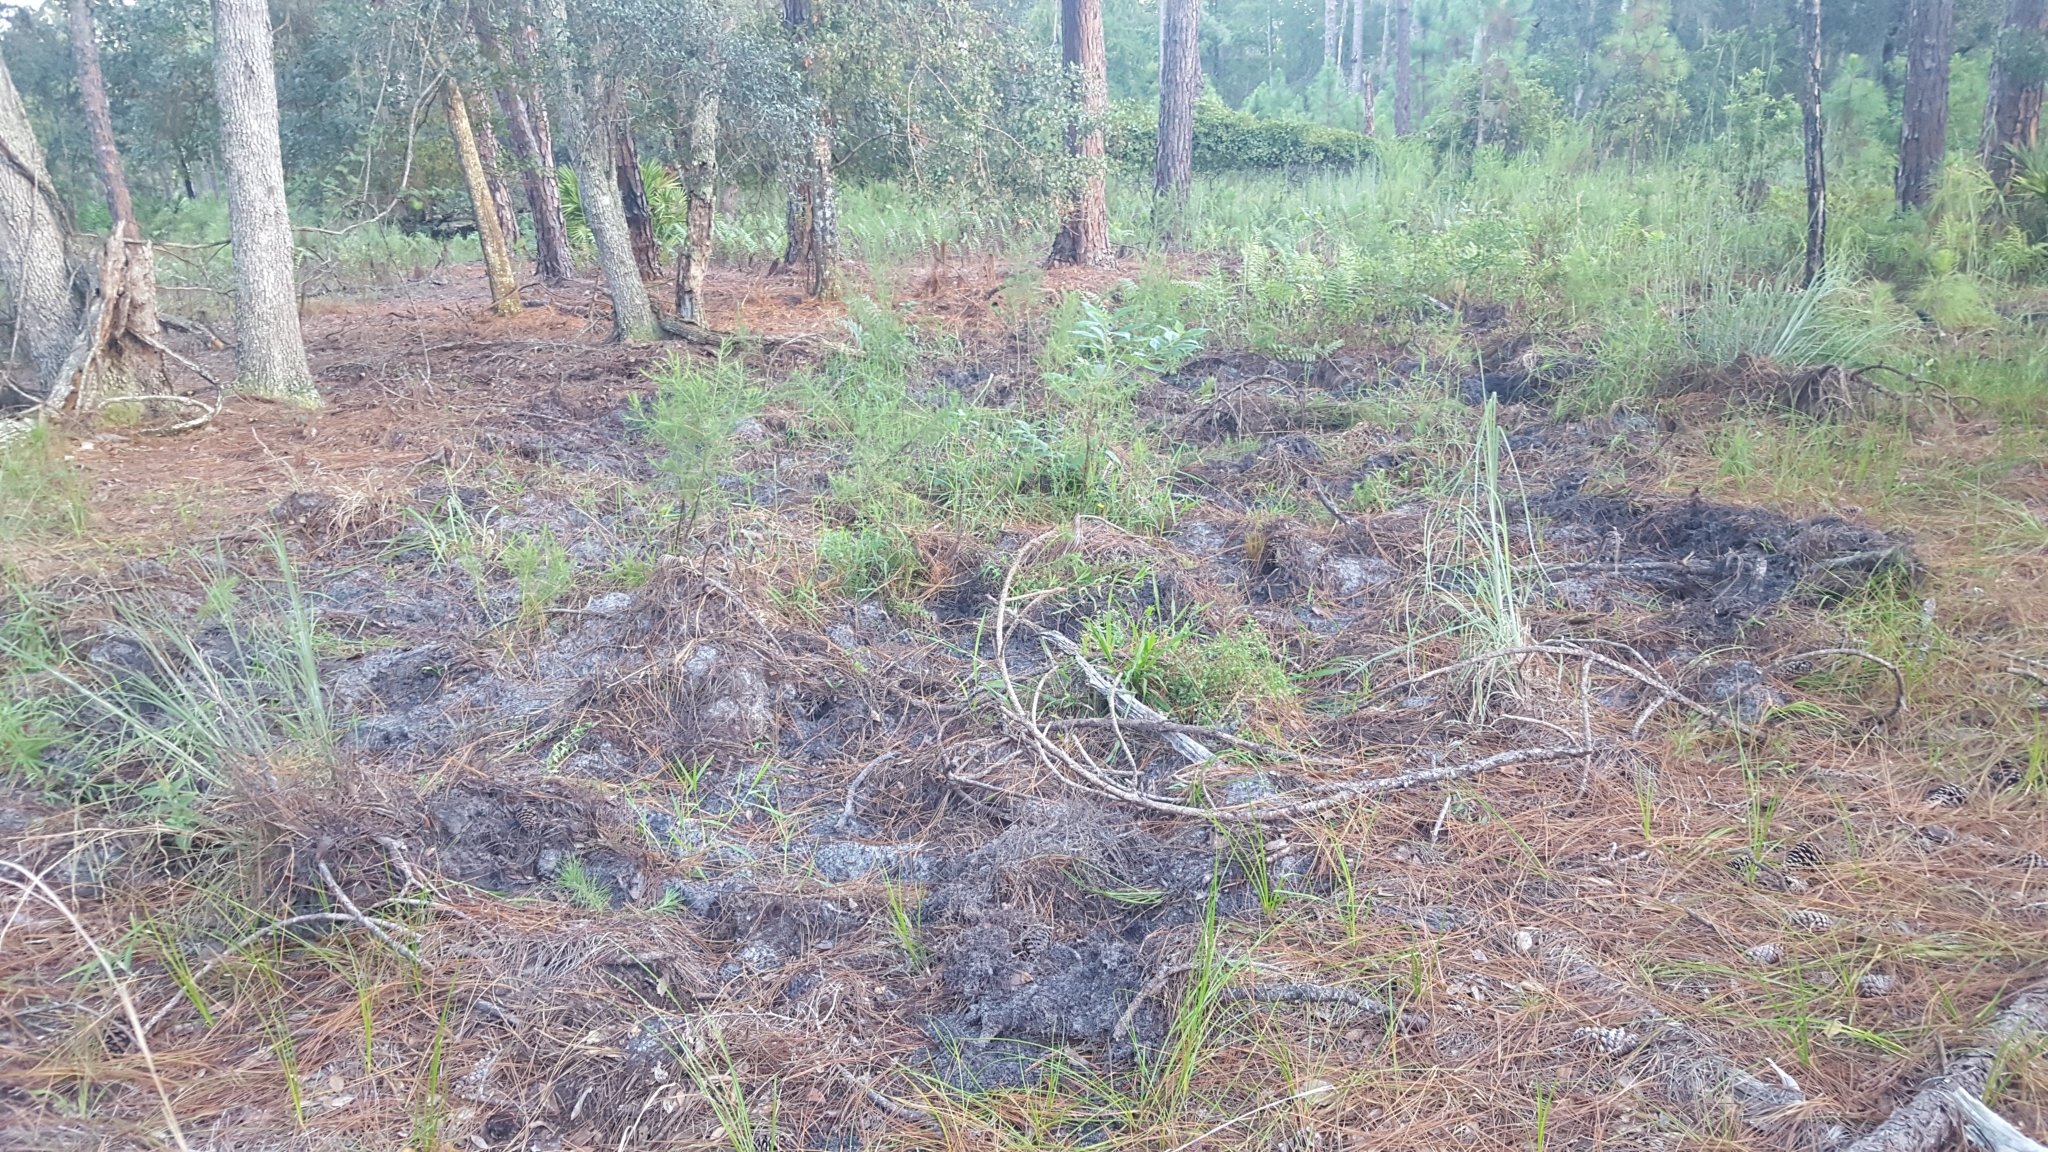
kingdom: Animalia
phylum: Chordata
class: Mammalia
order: Artiodactyla
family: Suidae
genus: Sus
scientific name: Sus scrofa
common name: Wild boar
